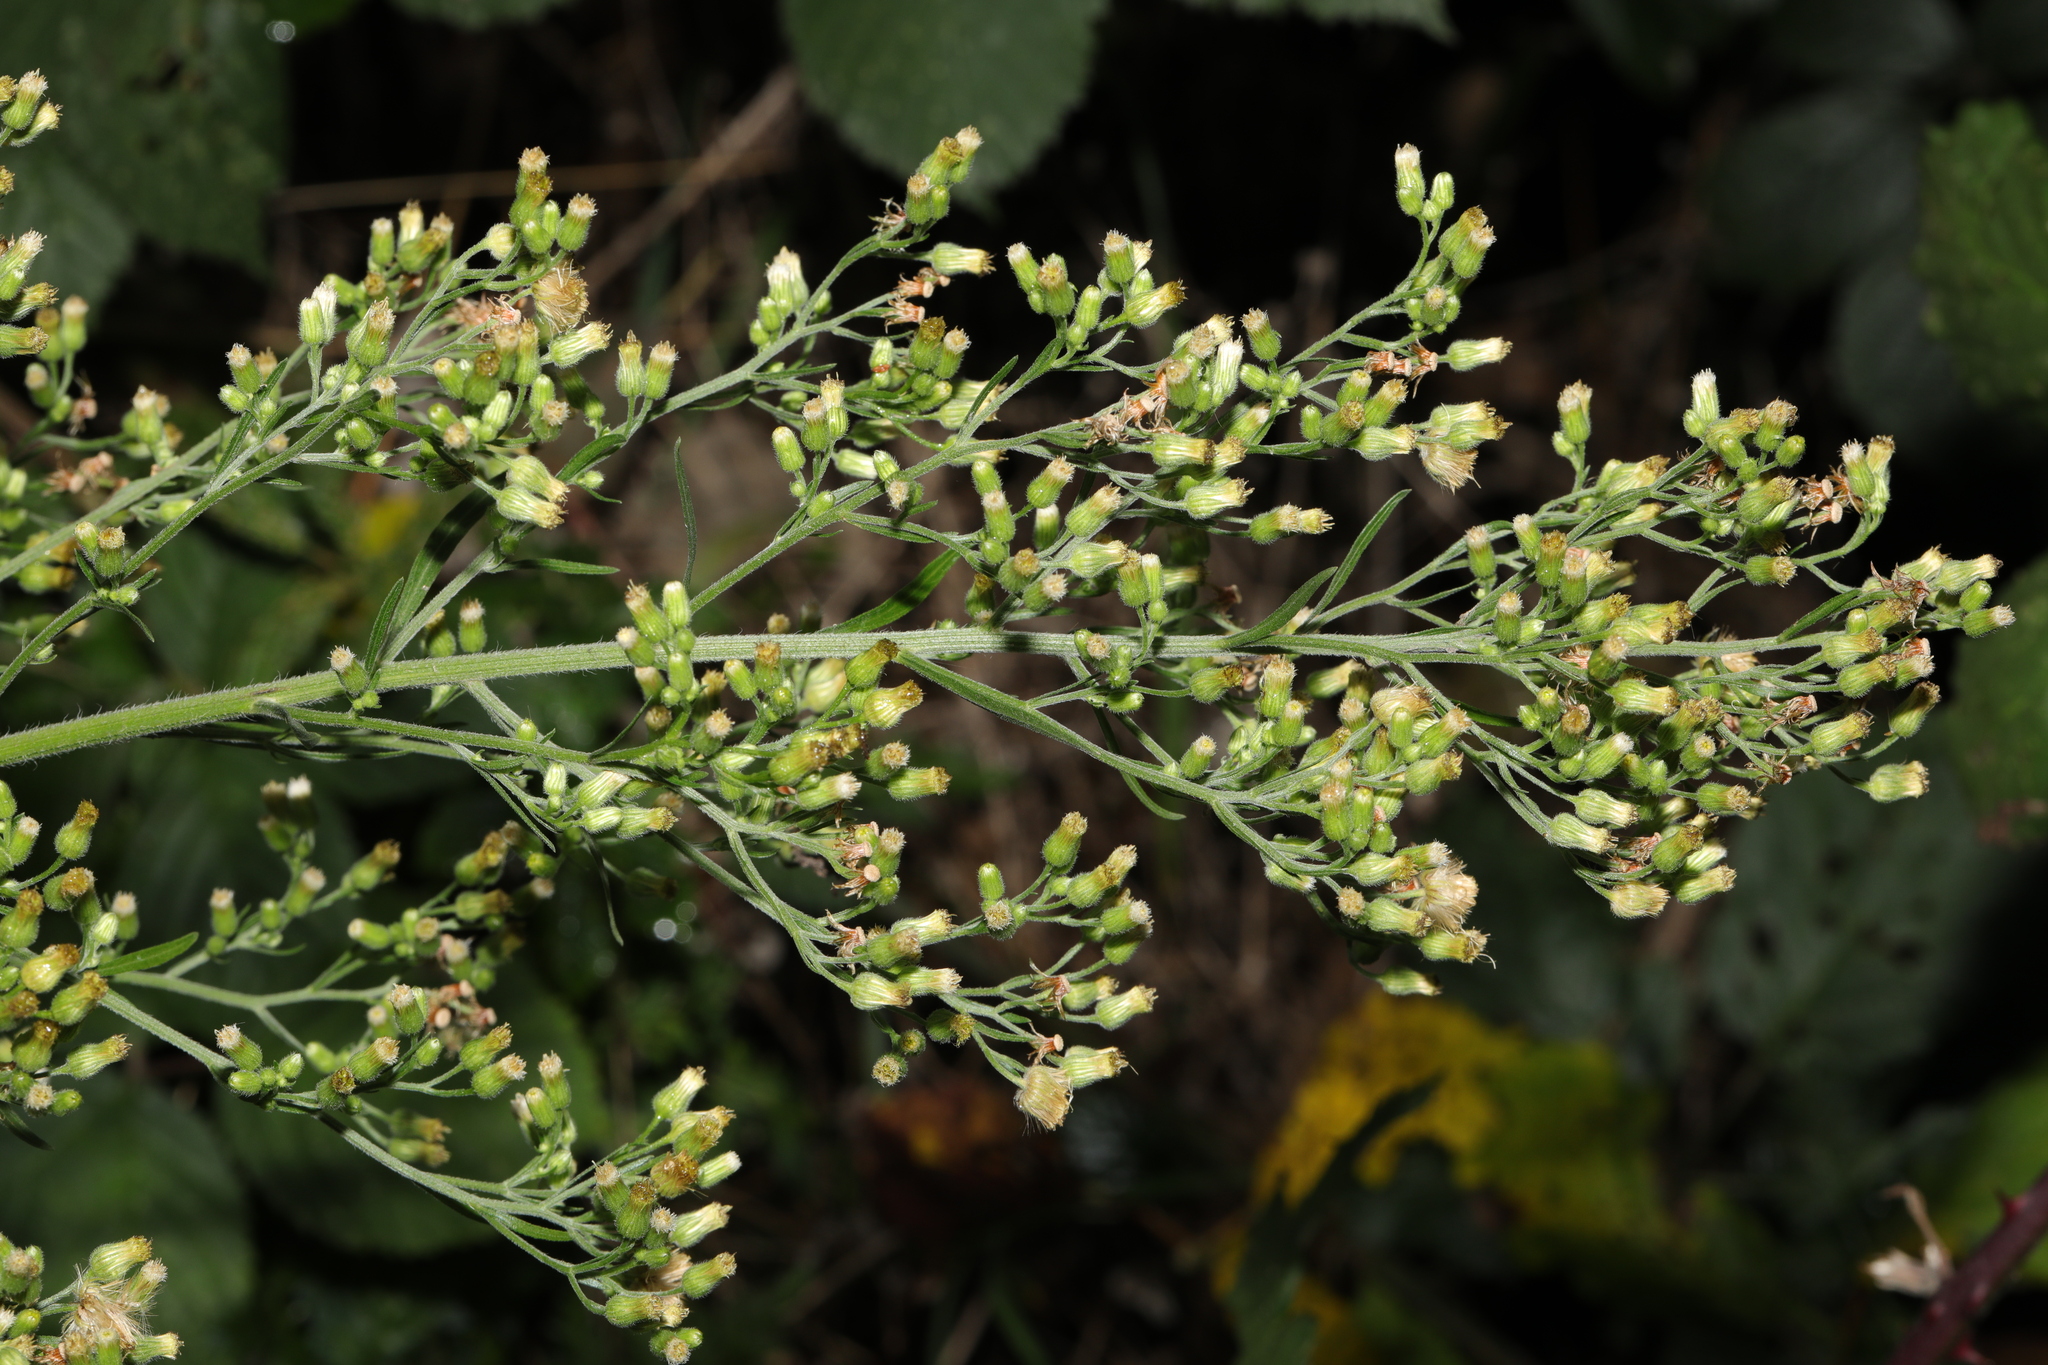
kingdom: Plantae
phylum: Tracheophyta
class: Magnoliopsida
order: Asterales
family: Asteraceae
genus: Erigeron
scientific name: Erigeron sumatrensis
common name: Daisy
